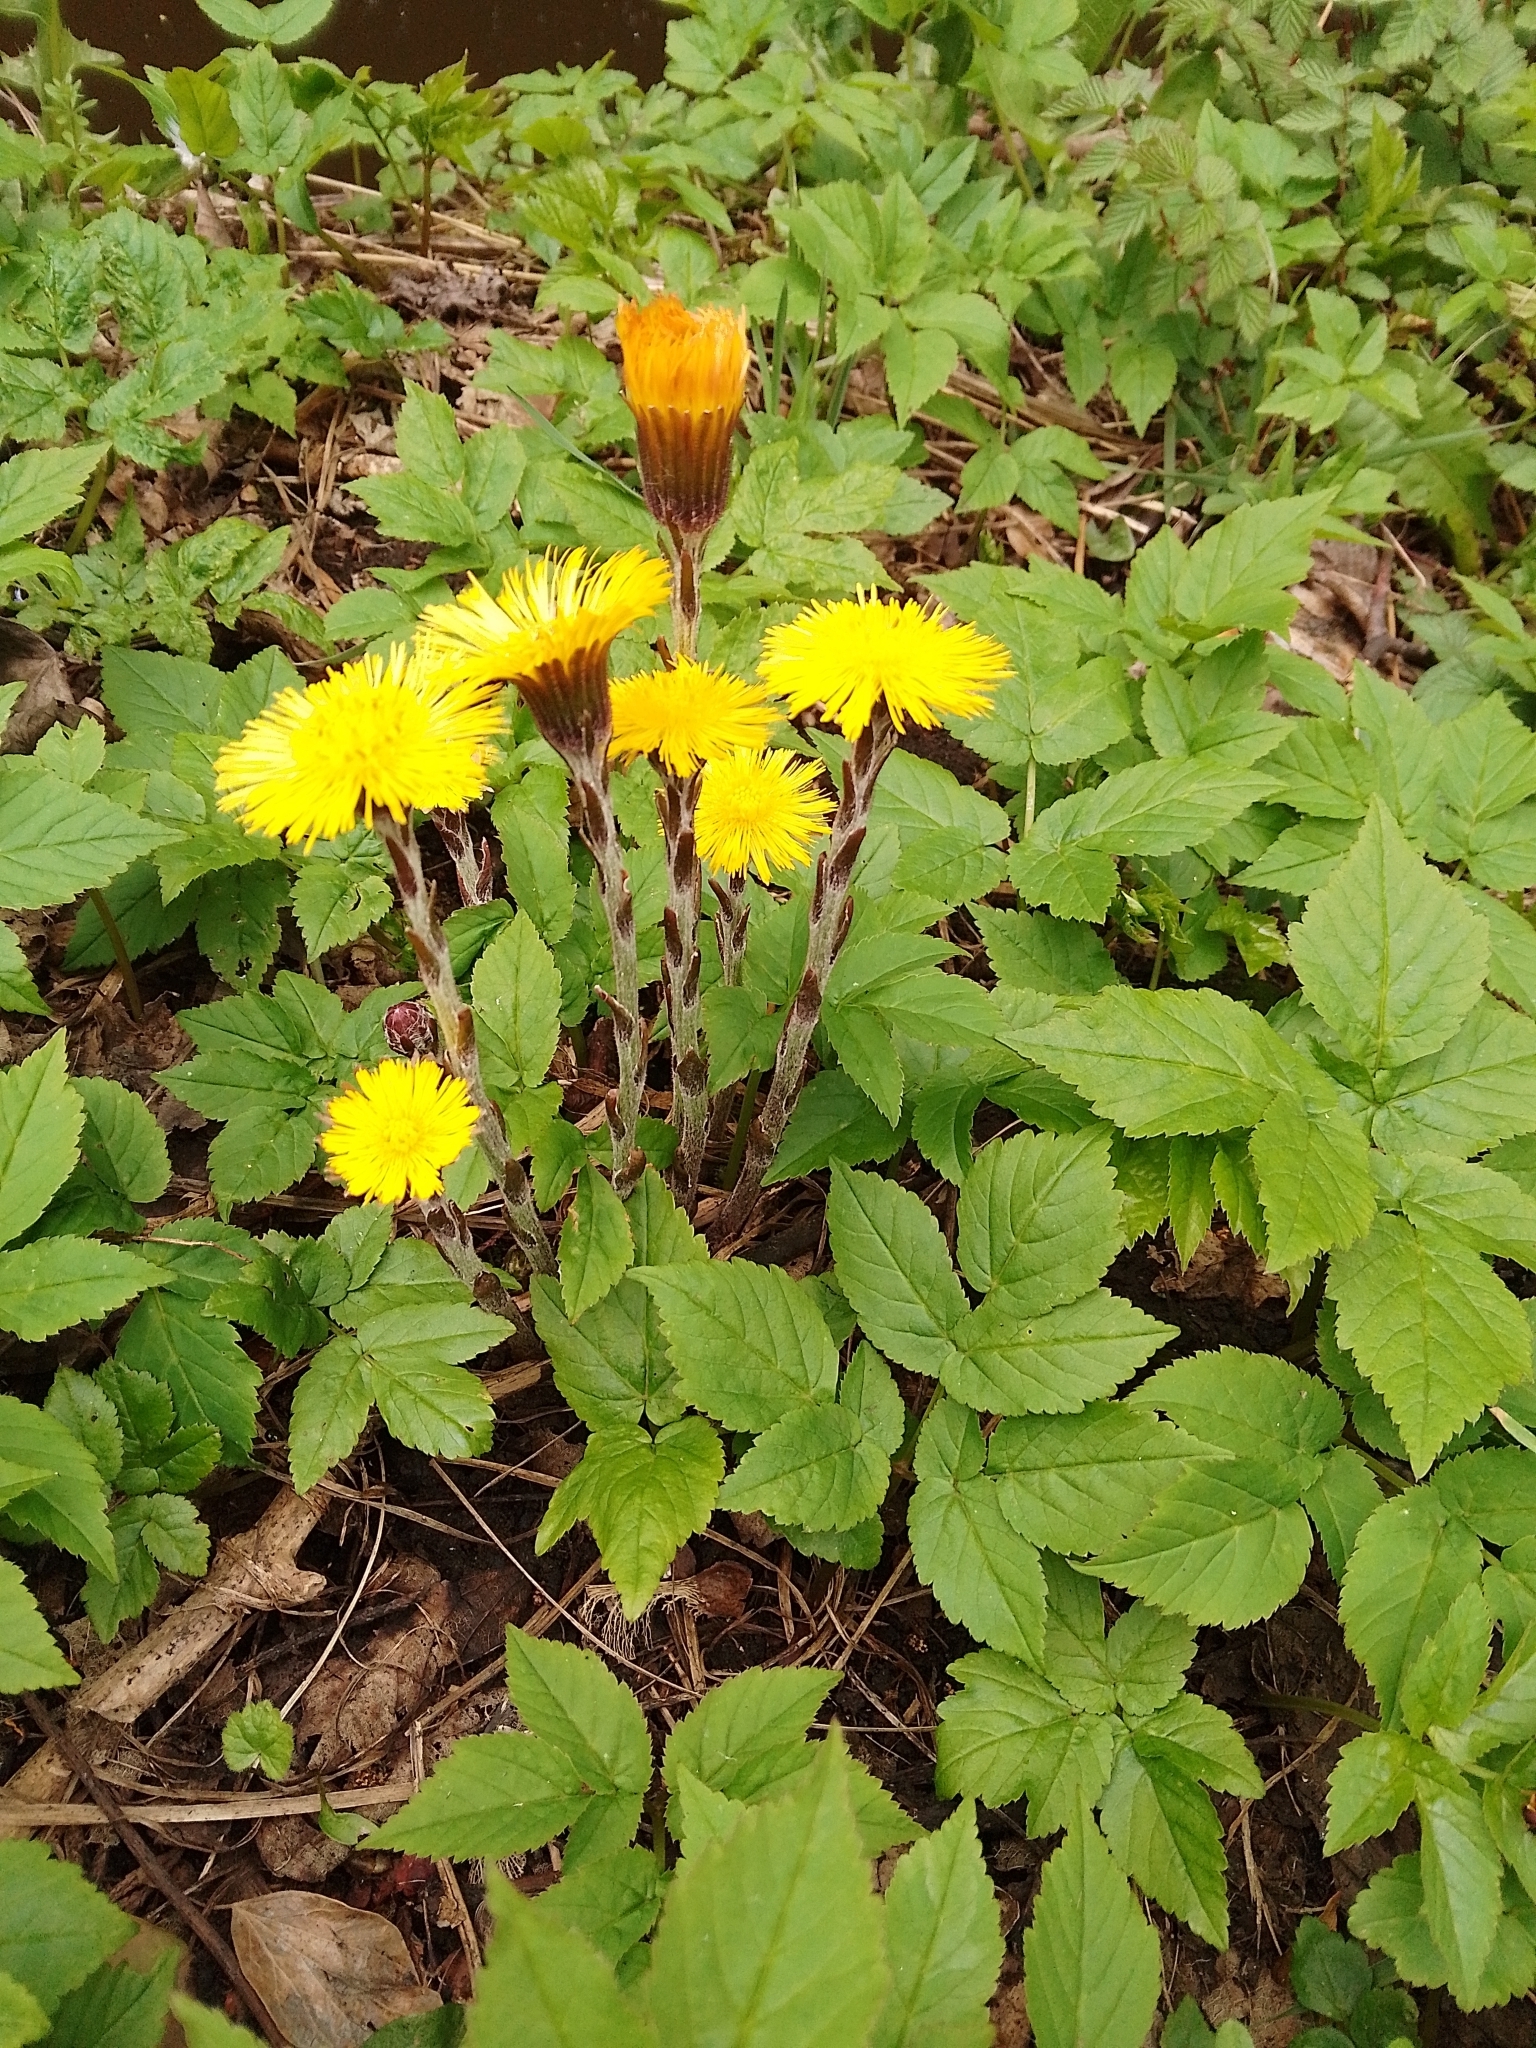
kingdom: Plantae
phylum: Tracheophyta
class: Magnoliopsida
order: Asterales
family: Asteraceae
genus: Tussilago
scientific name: Tussilago farfara
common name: Coltsfoot
